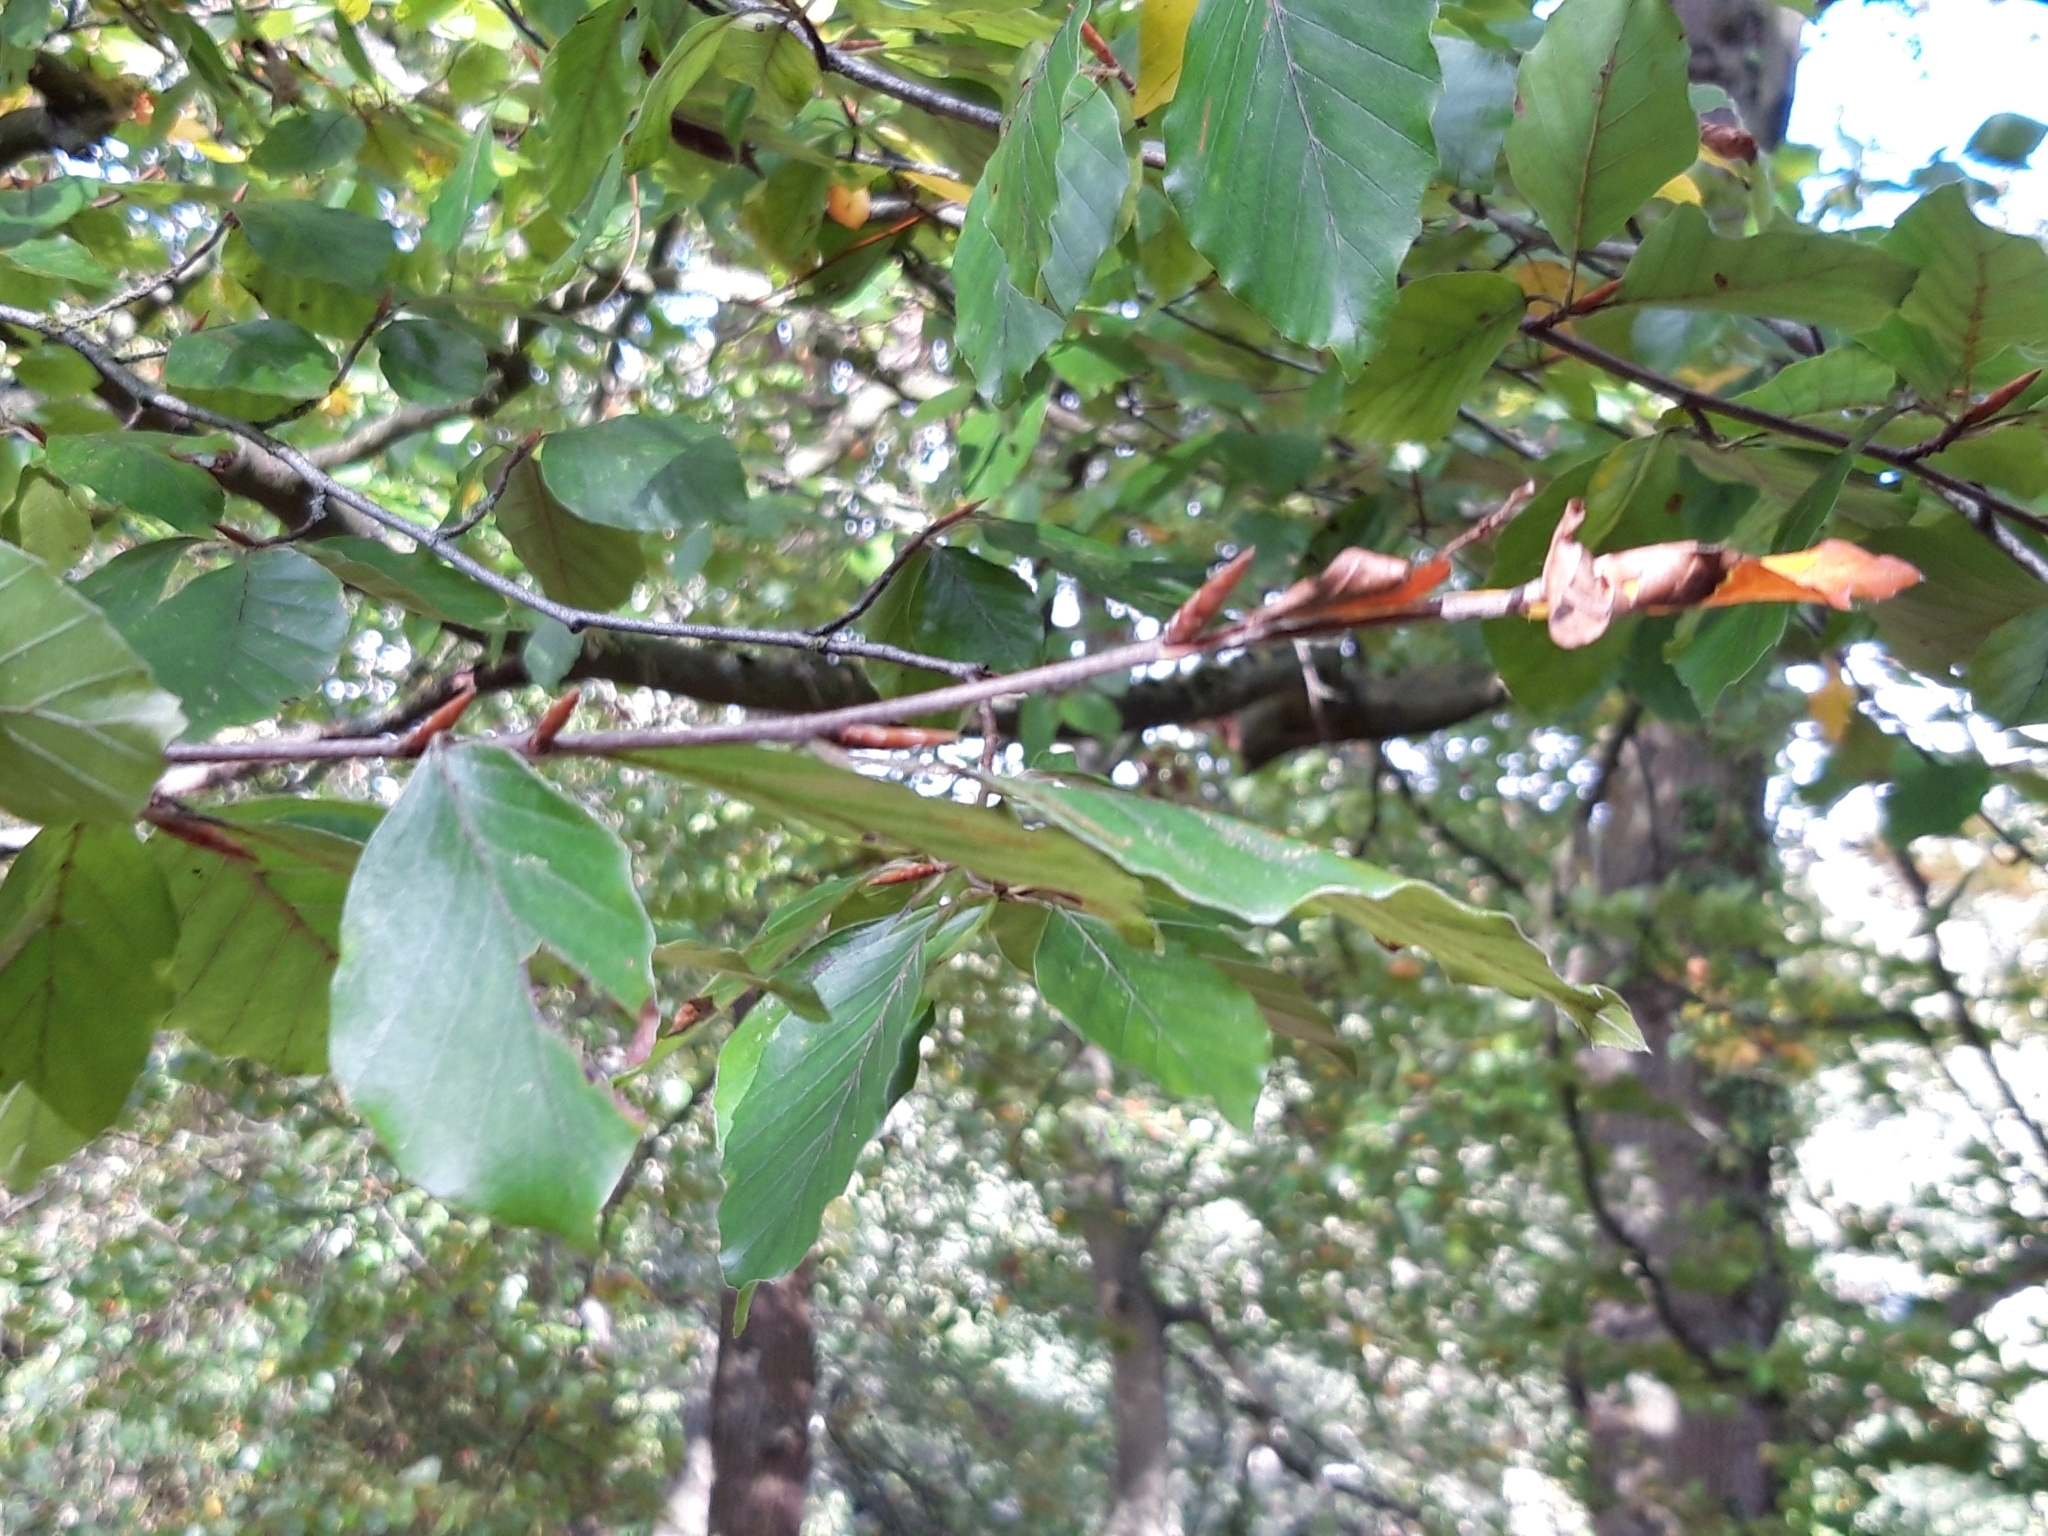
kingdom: Plantae
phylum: Tracheophyta
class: Magnoliopsida
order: Fagales
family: Fagaceae
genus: Fagus
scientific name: Fagus sylvatica
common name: Beech
